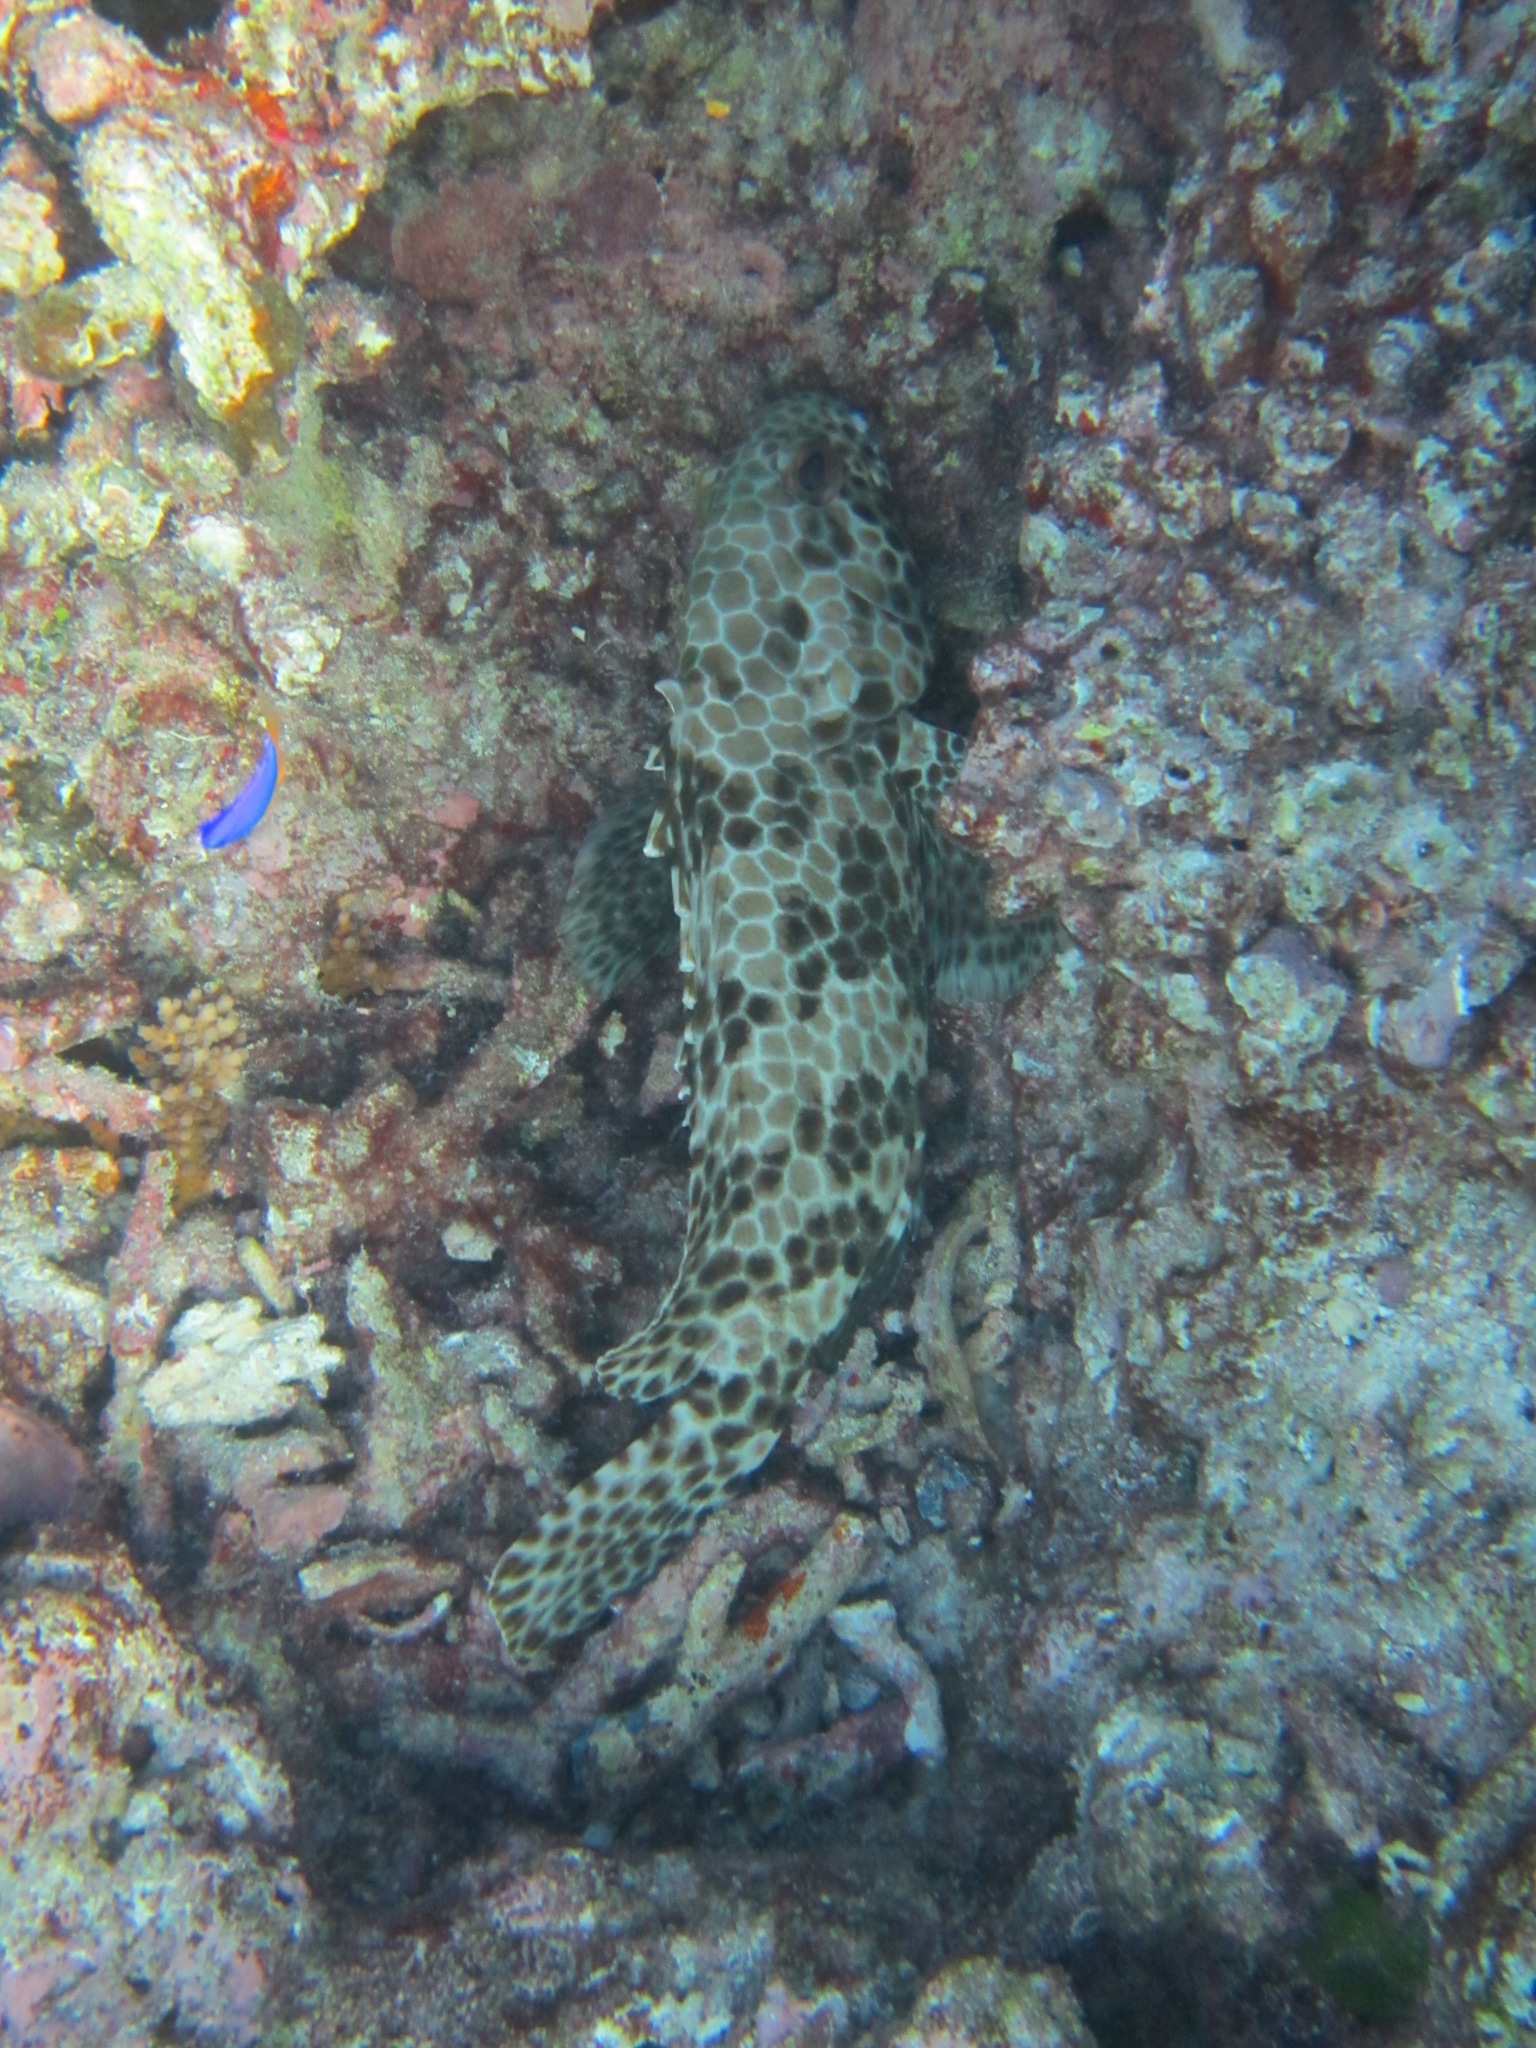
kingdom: Animalia
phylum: Chordata
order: Perciformes
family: Serranidae
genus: Epinephelus
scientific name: Epinephelus quoyanus
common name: Longfin grouper
